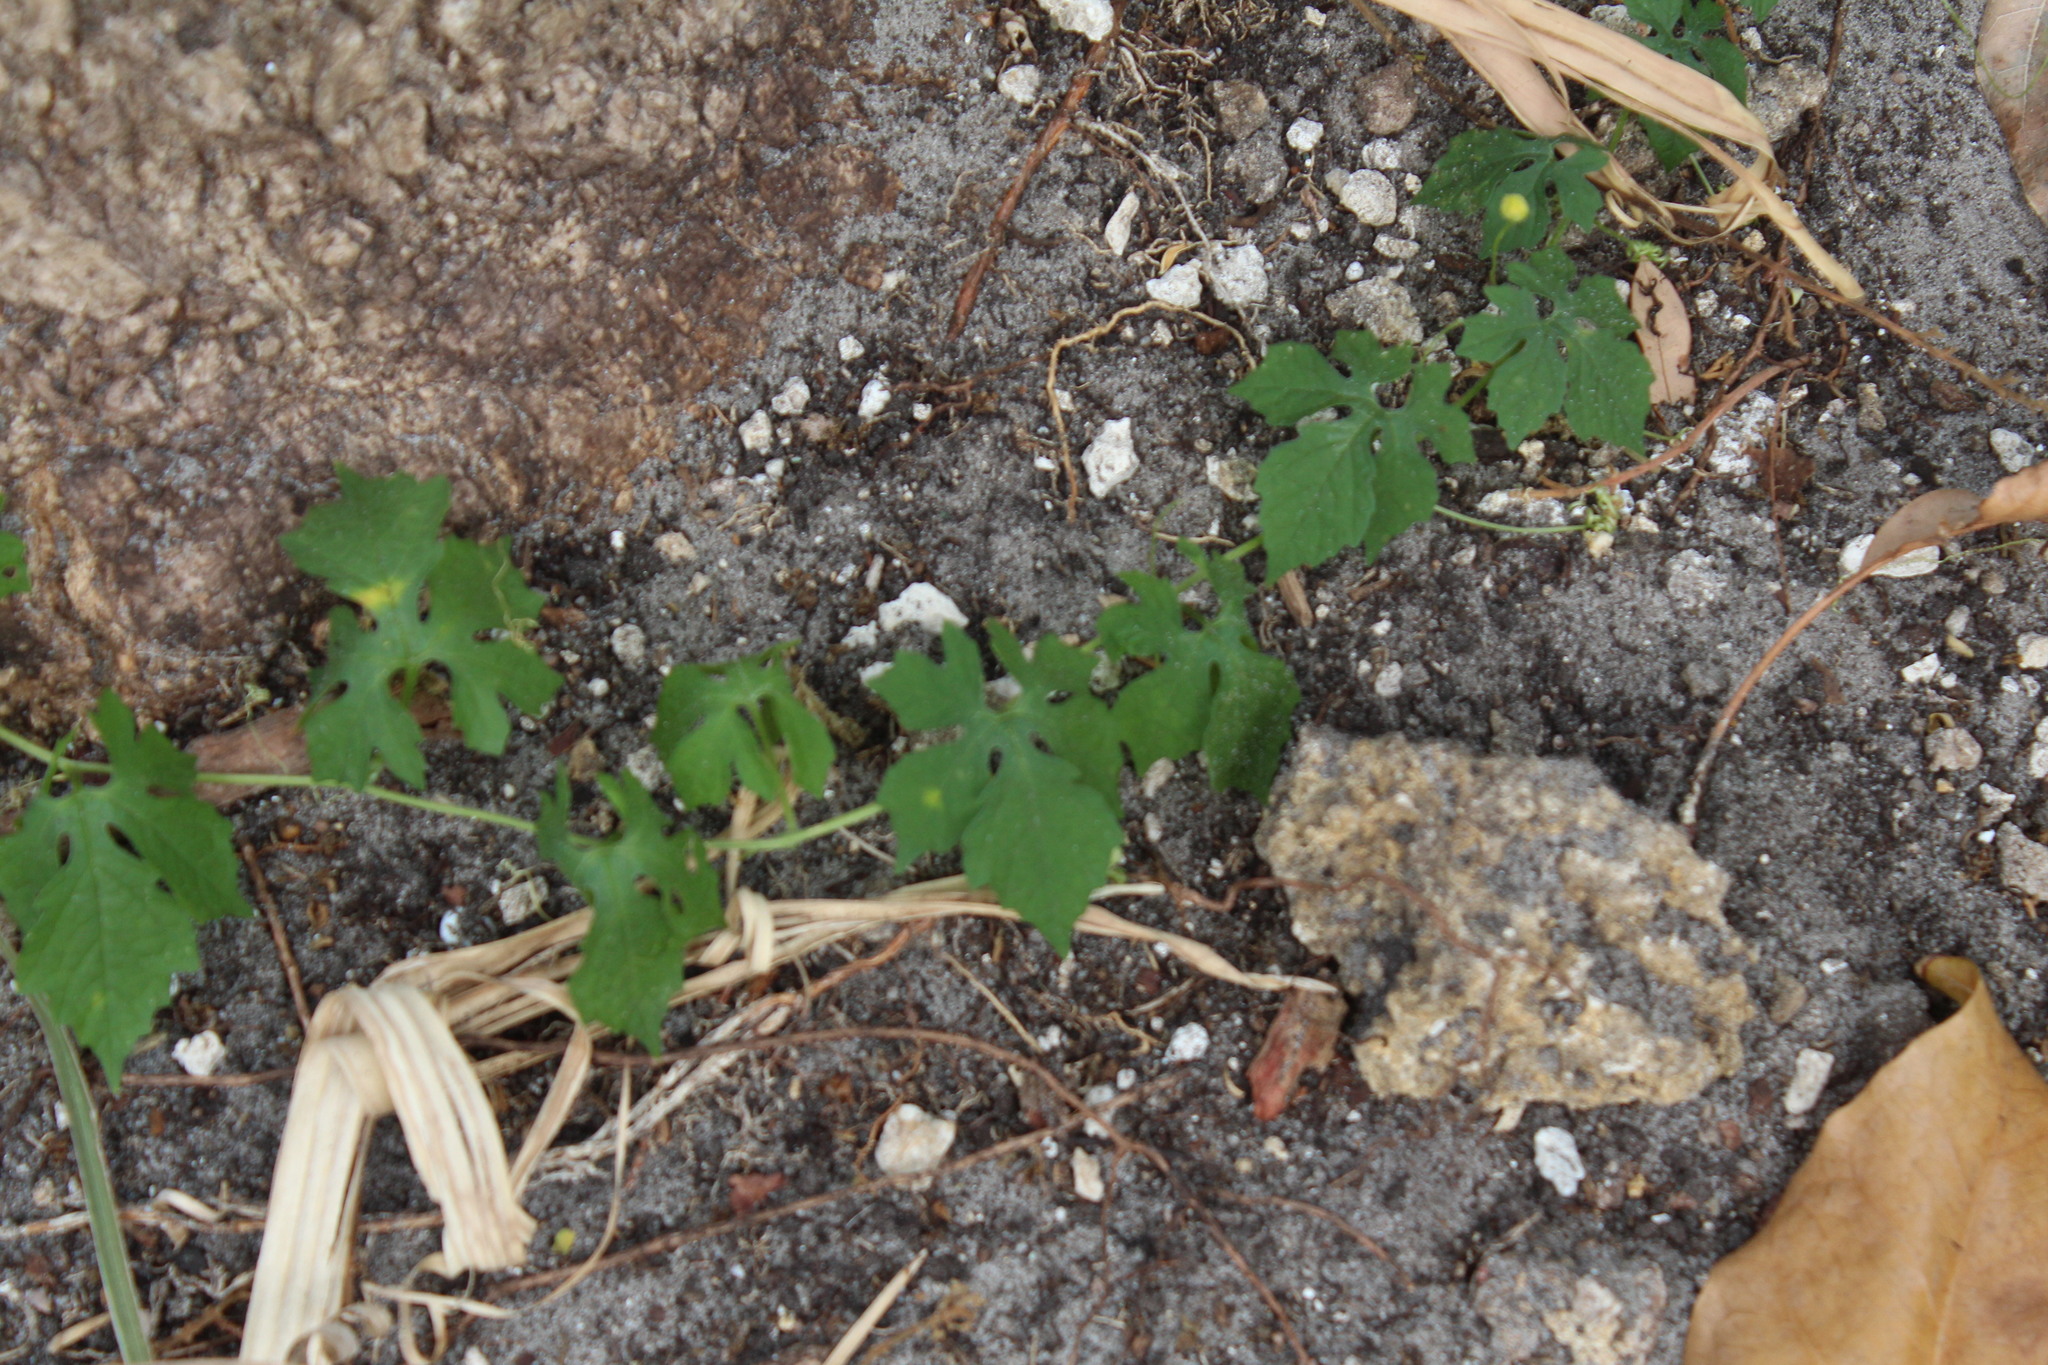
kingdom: Plantae
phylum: Tracheophyta
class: Magnoliopsida
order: Cucurbitales
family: Cucurbitaceae
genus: Momordica
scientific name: Momordica charantia
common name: Balsampear
